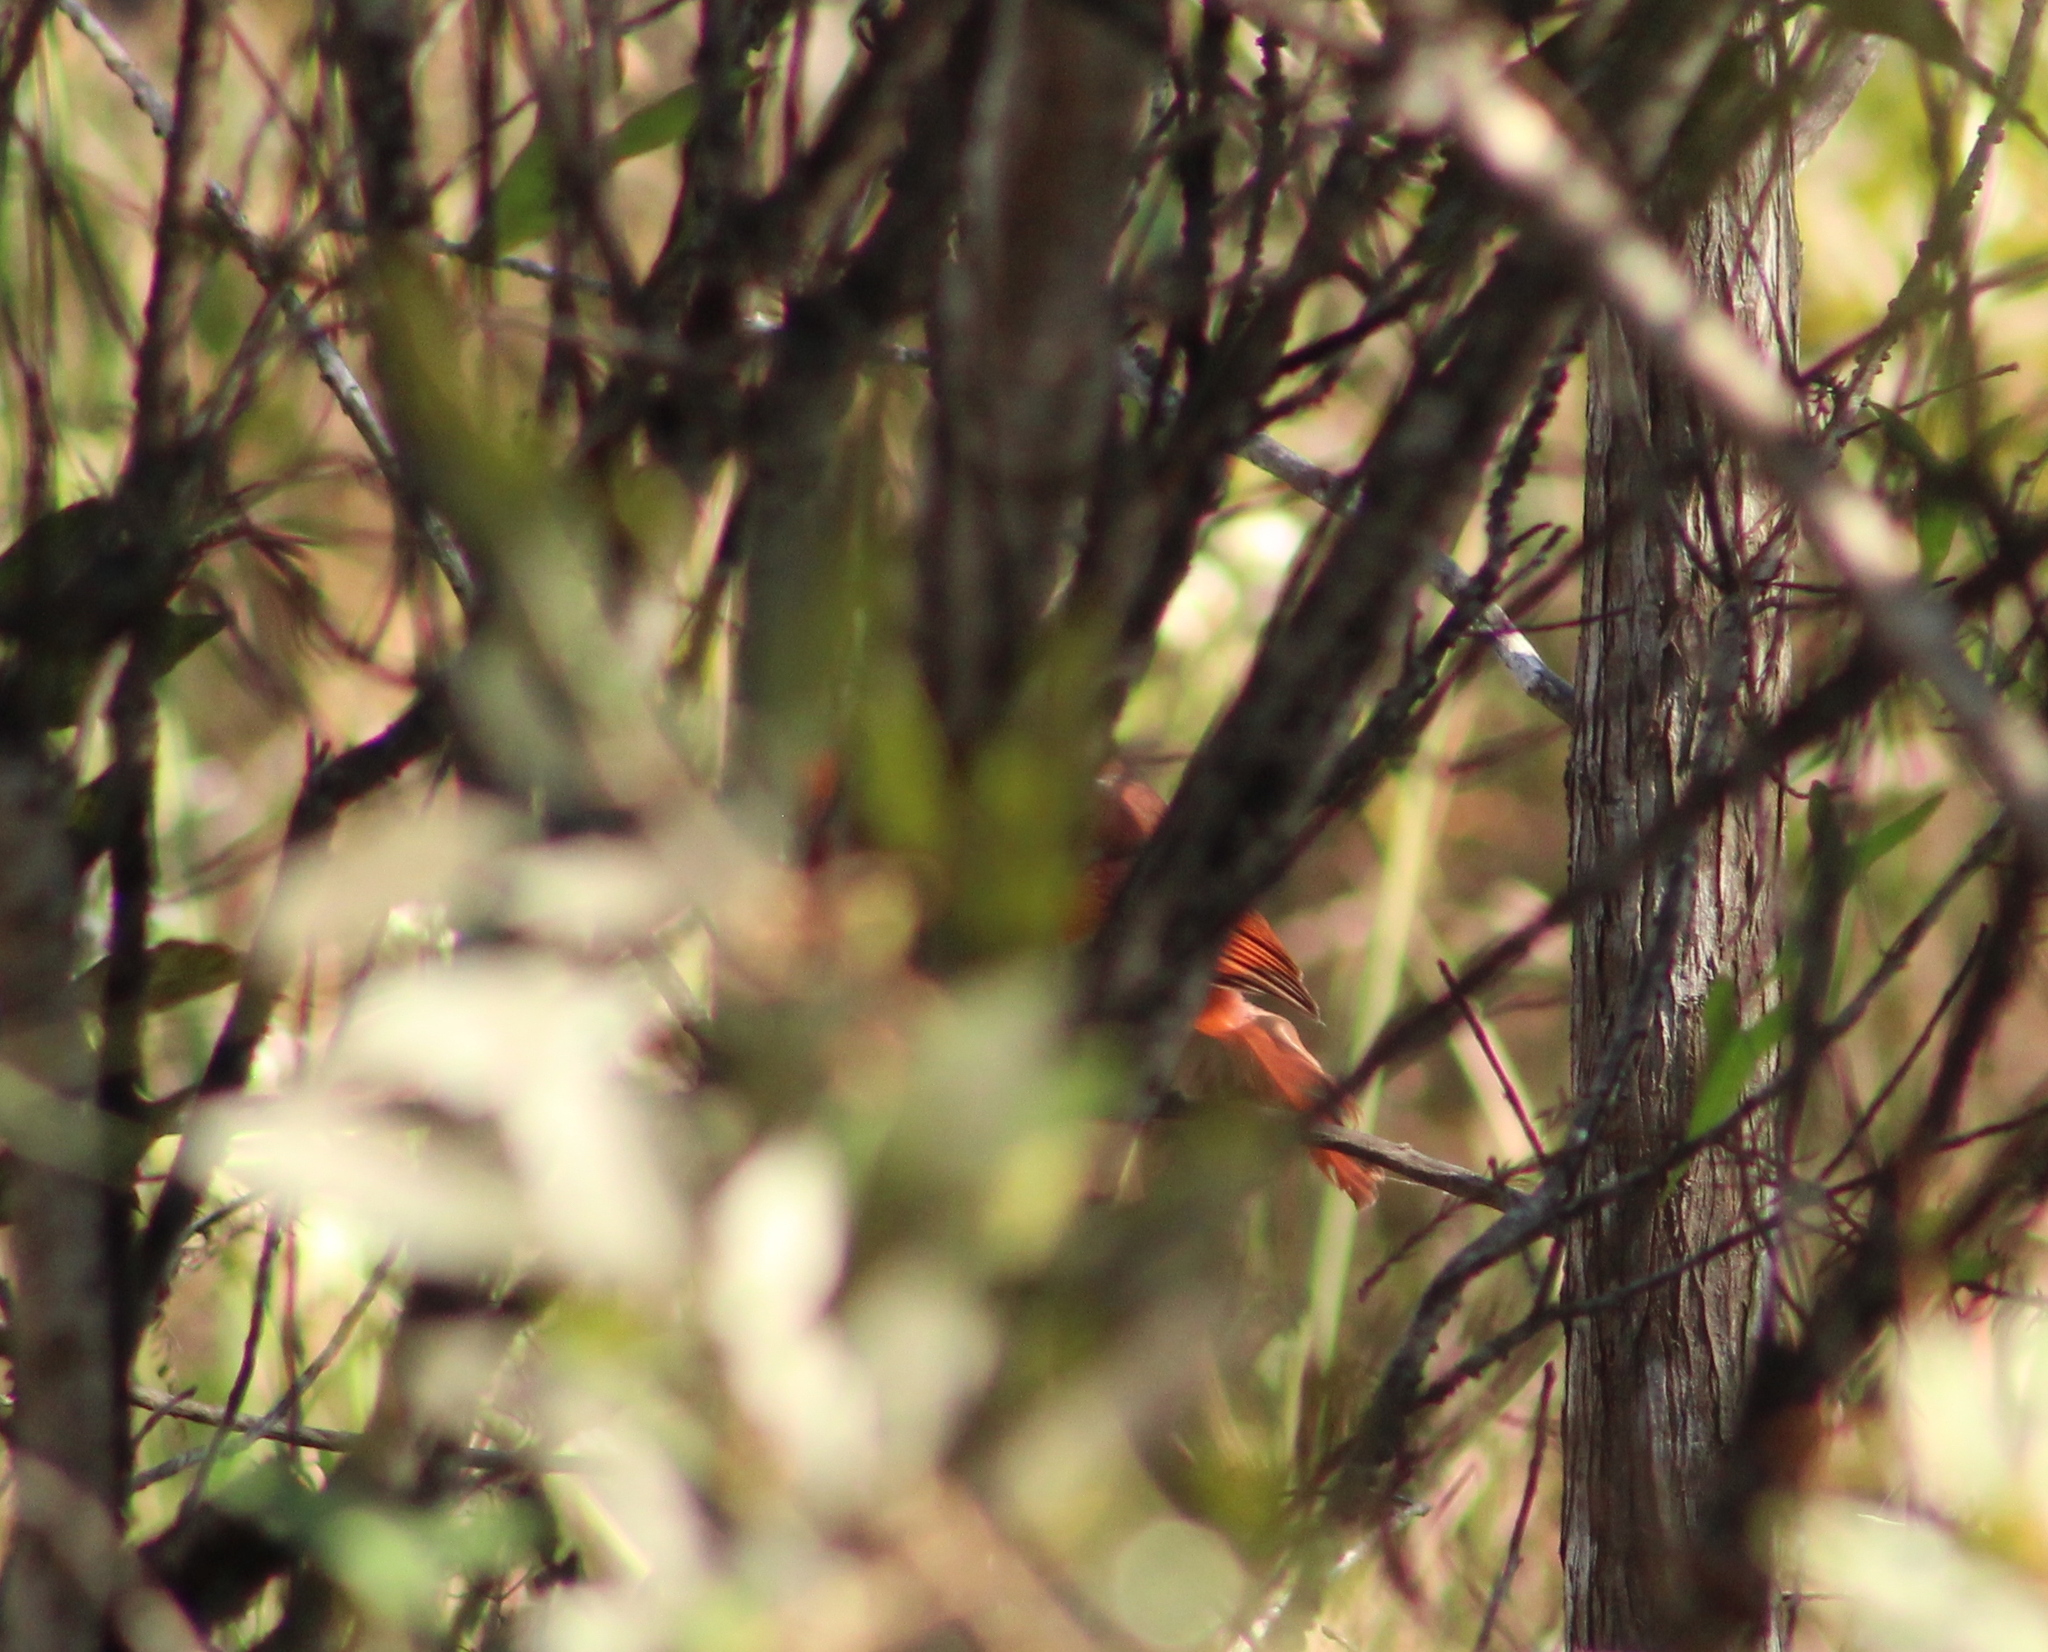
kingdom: Animalia
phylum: Chordata
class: Aves
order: Passeriformes
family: Cardinalidae
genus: Cardinalis
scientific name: Cardinalis cardinalis
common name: Northern cardinal
